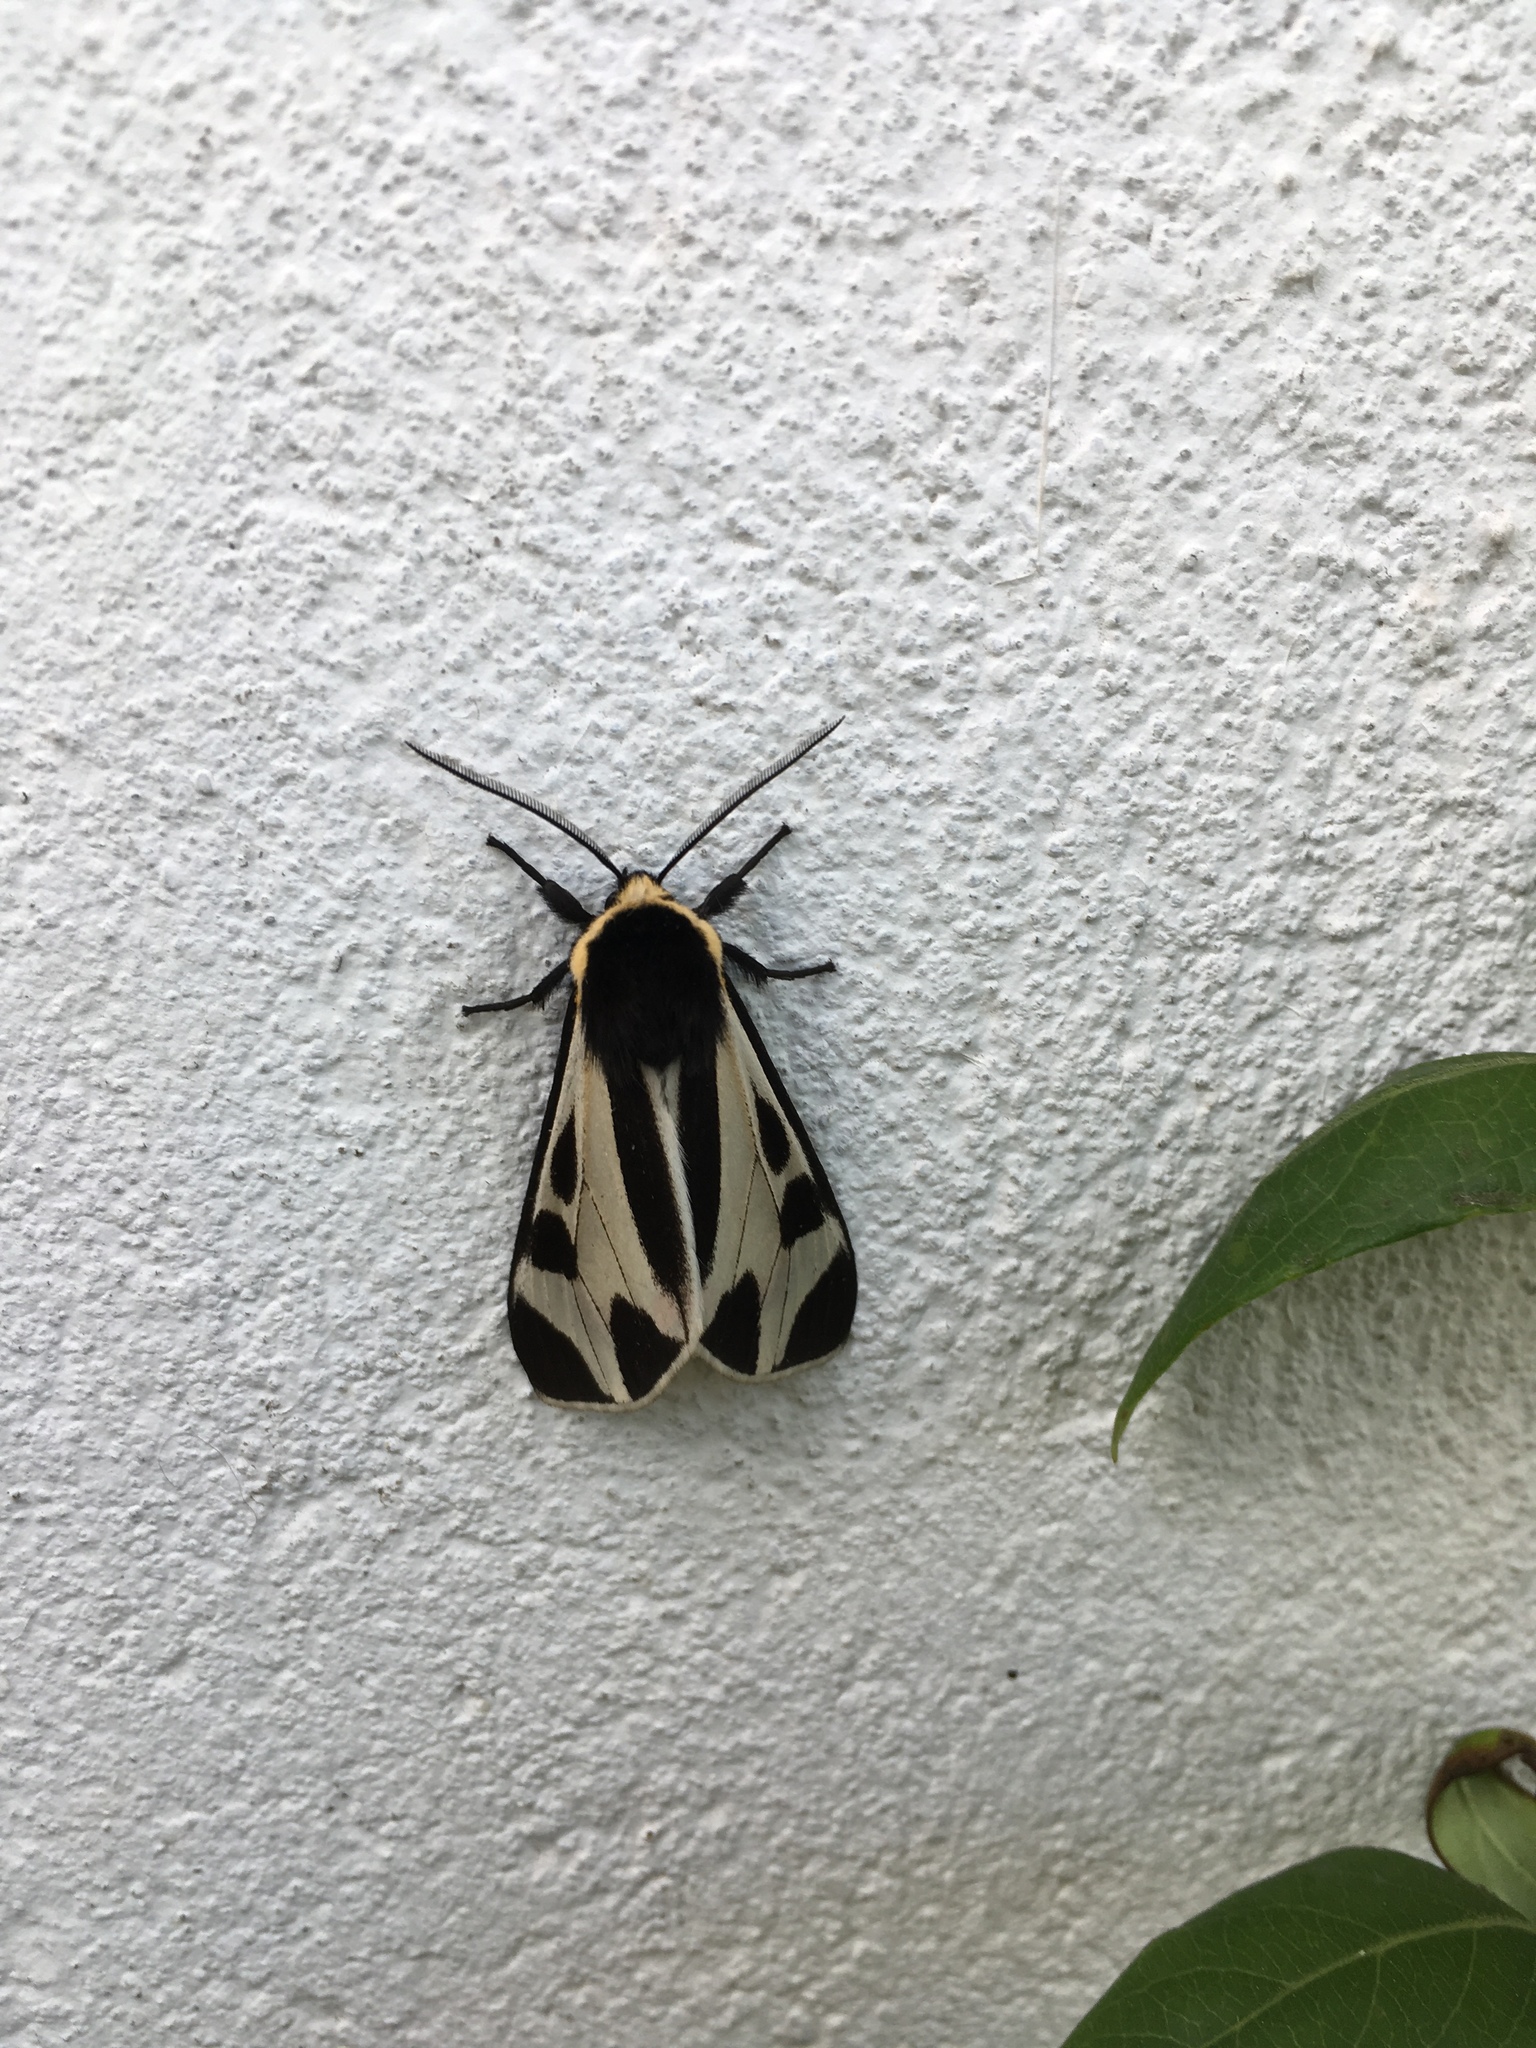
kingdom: Animalia
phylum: Arthropoda
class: Insecta
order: Lepidoptera
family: Erebidae
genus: Dysschema
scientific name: Dysschema centenaria
